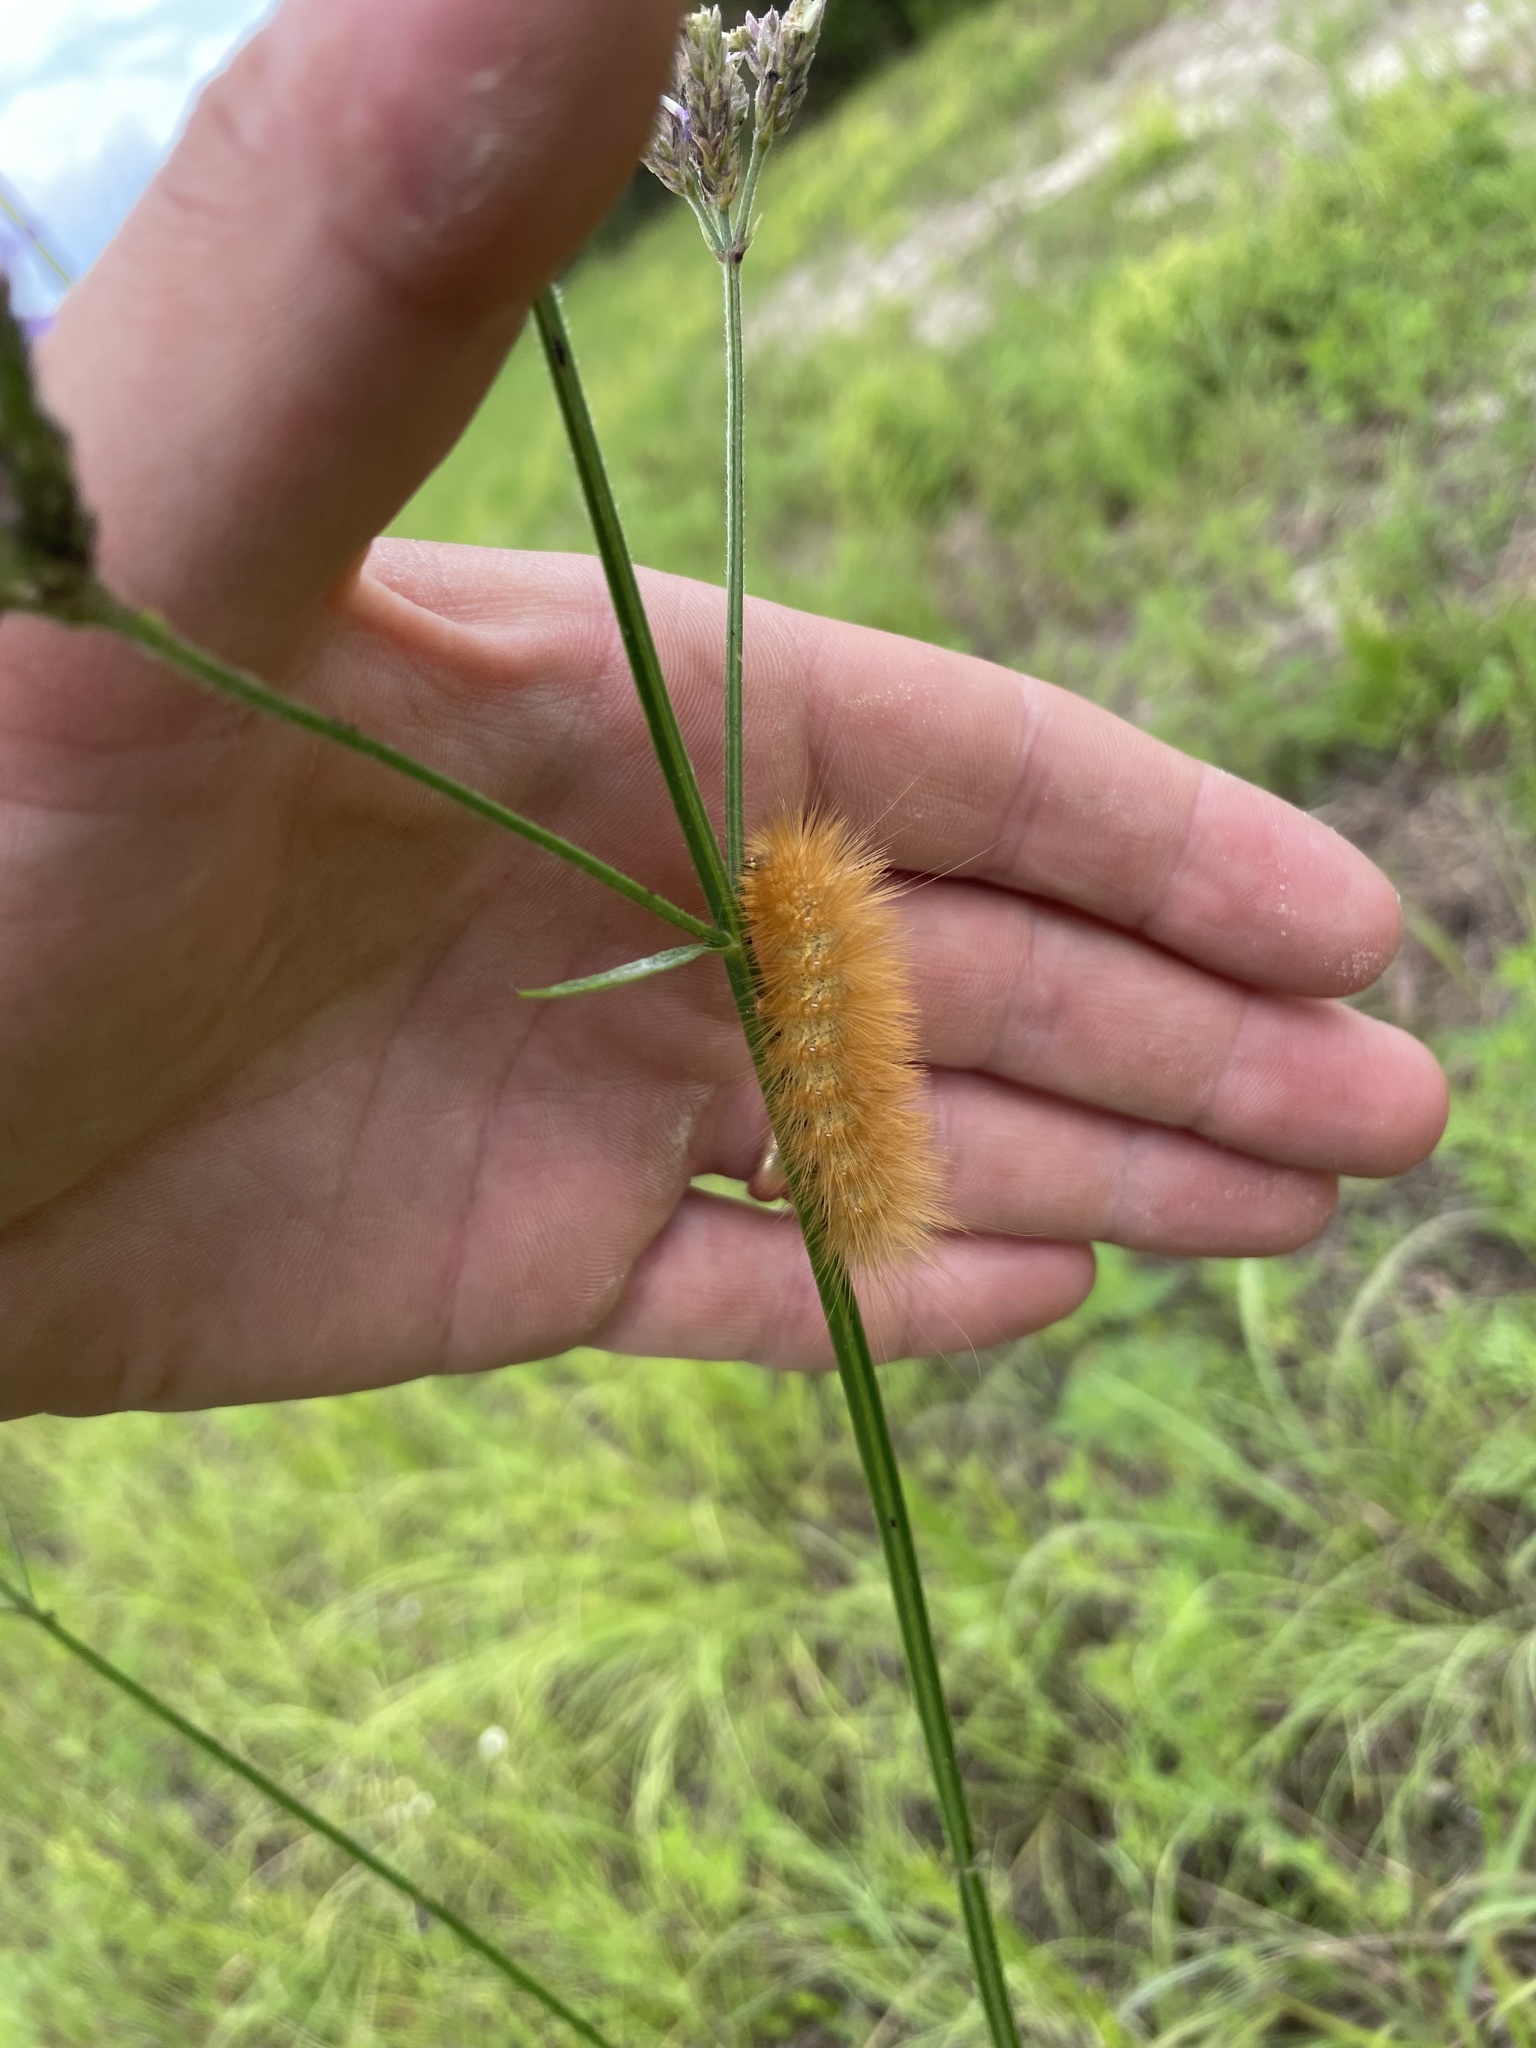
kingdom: Animalia
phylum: Arthropoda
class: Insecta
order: Lepidoptera
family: Erebidae
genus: Estigmene
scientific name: Estigmene acrea
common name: Salt marsh moth
